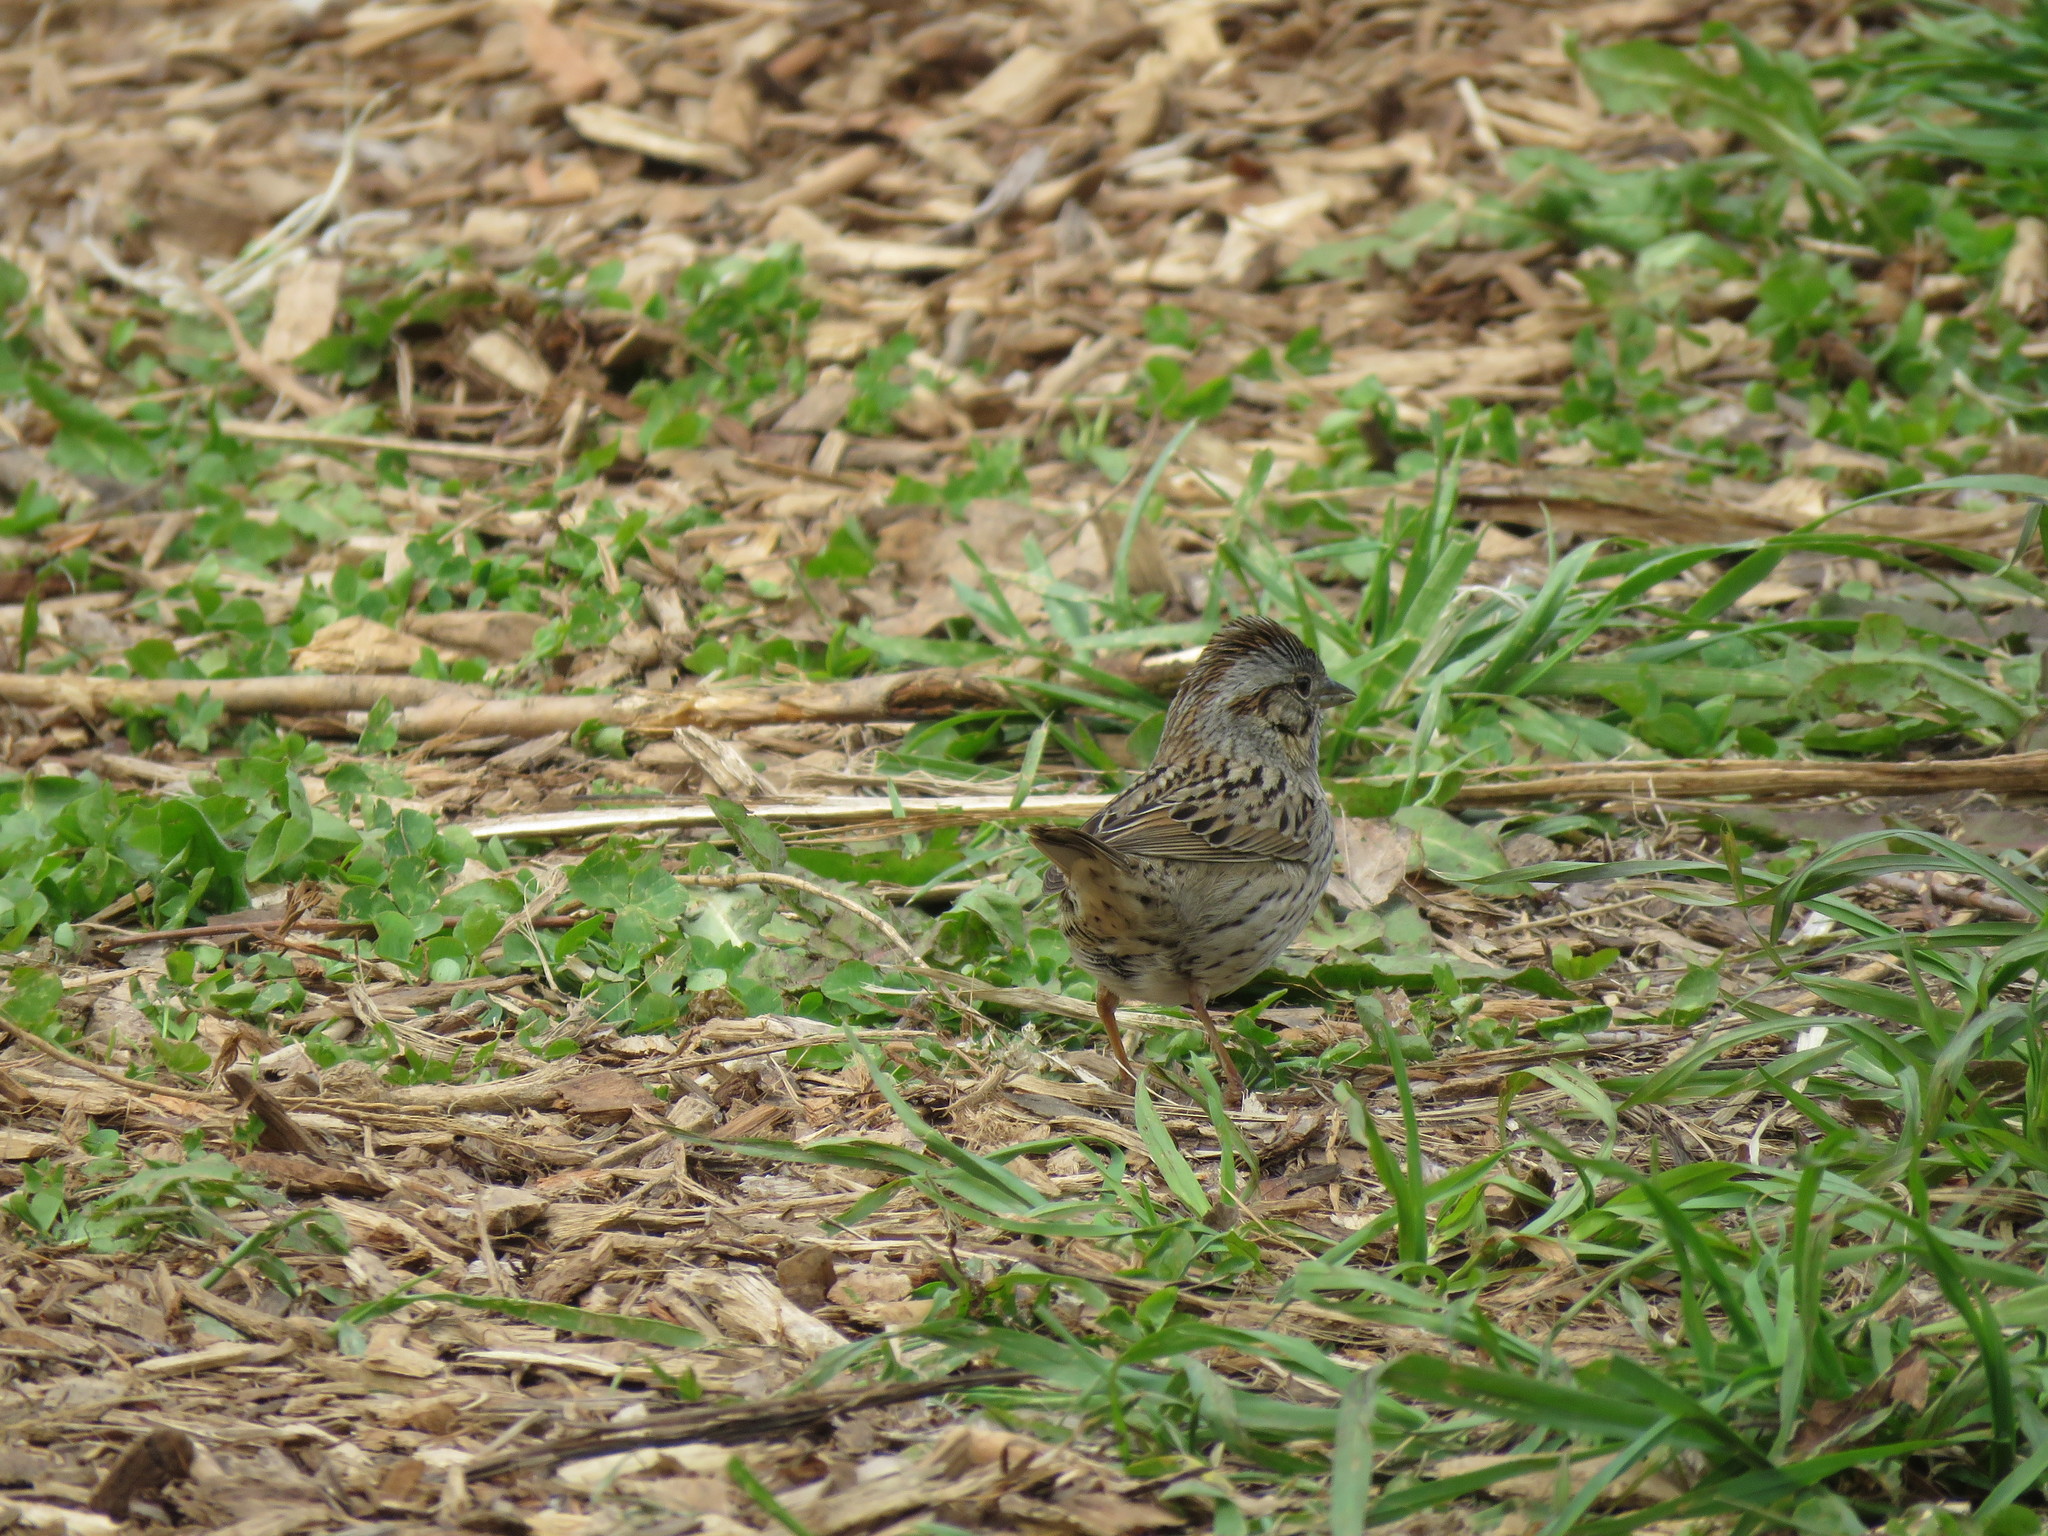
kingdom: Animalia
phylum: Chordata
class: Aves
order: Passeriformes
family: Passerellidae
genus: Melospiza
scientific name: Melospiza lincolnii
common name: Lincoln's sparrow
